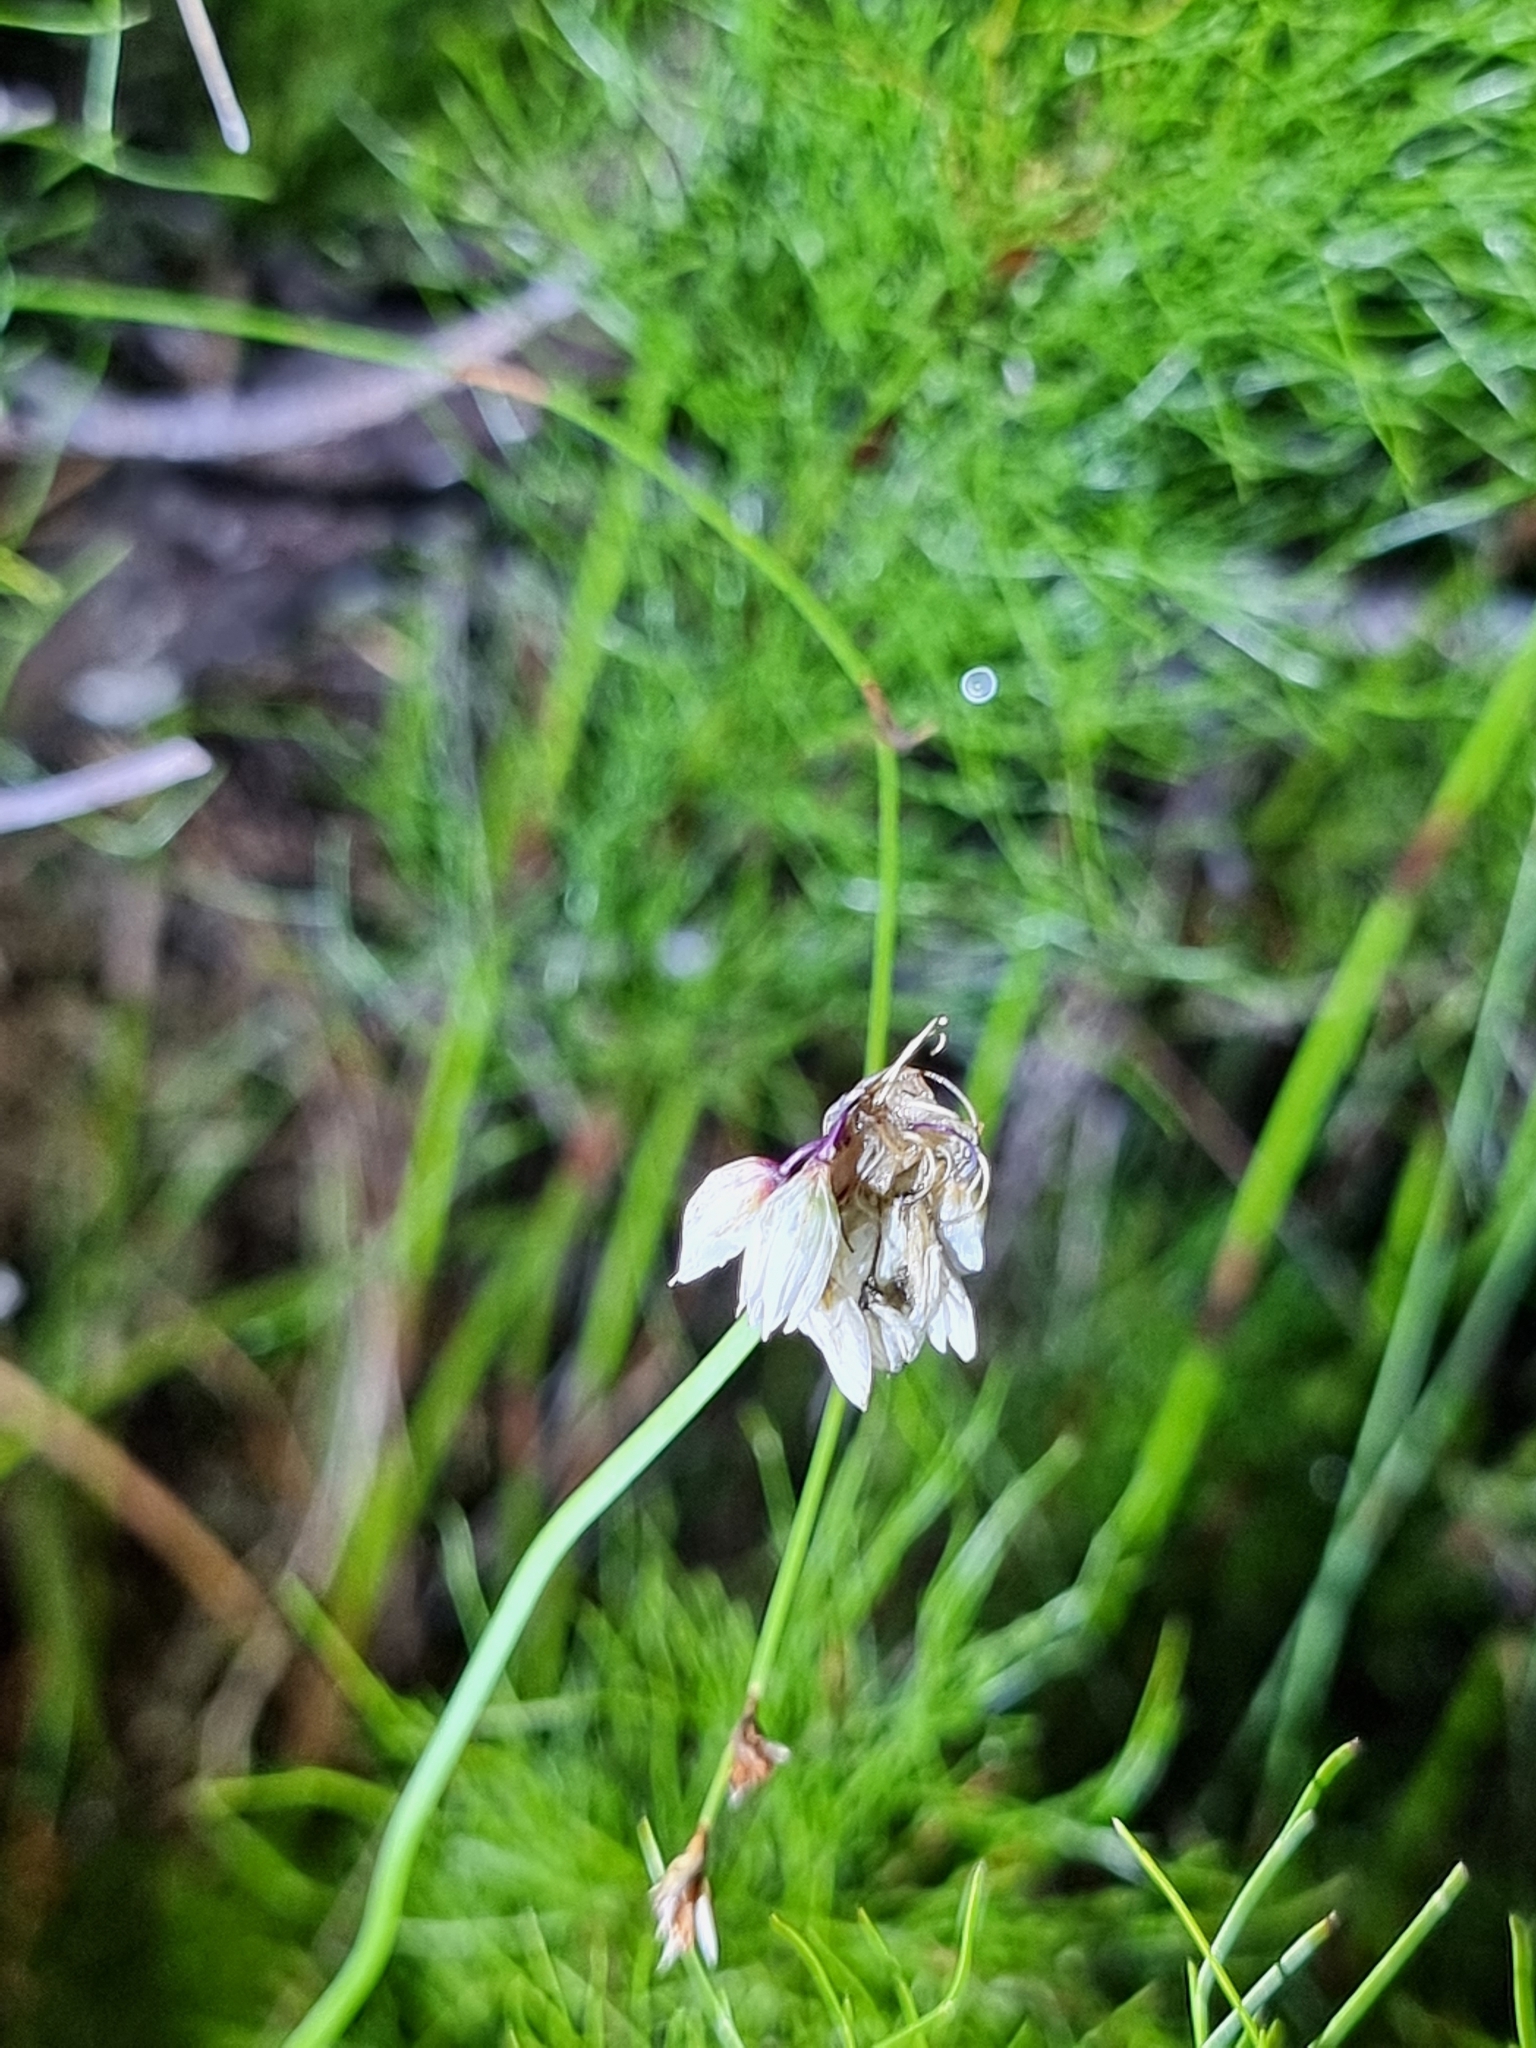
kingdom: Plantae
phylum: Tracheophyta
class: Liliopsida
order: Asparagales
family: Asparagaceae
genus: Sowerbaea
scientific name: Sowerbaea juncea
